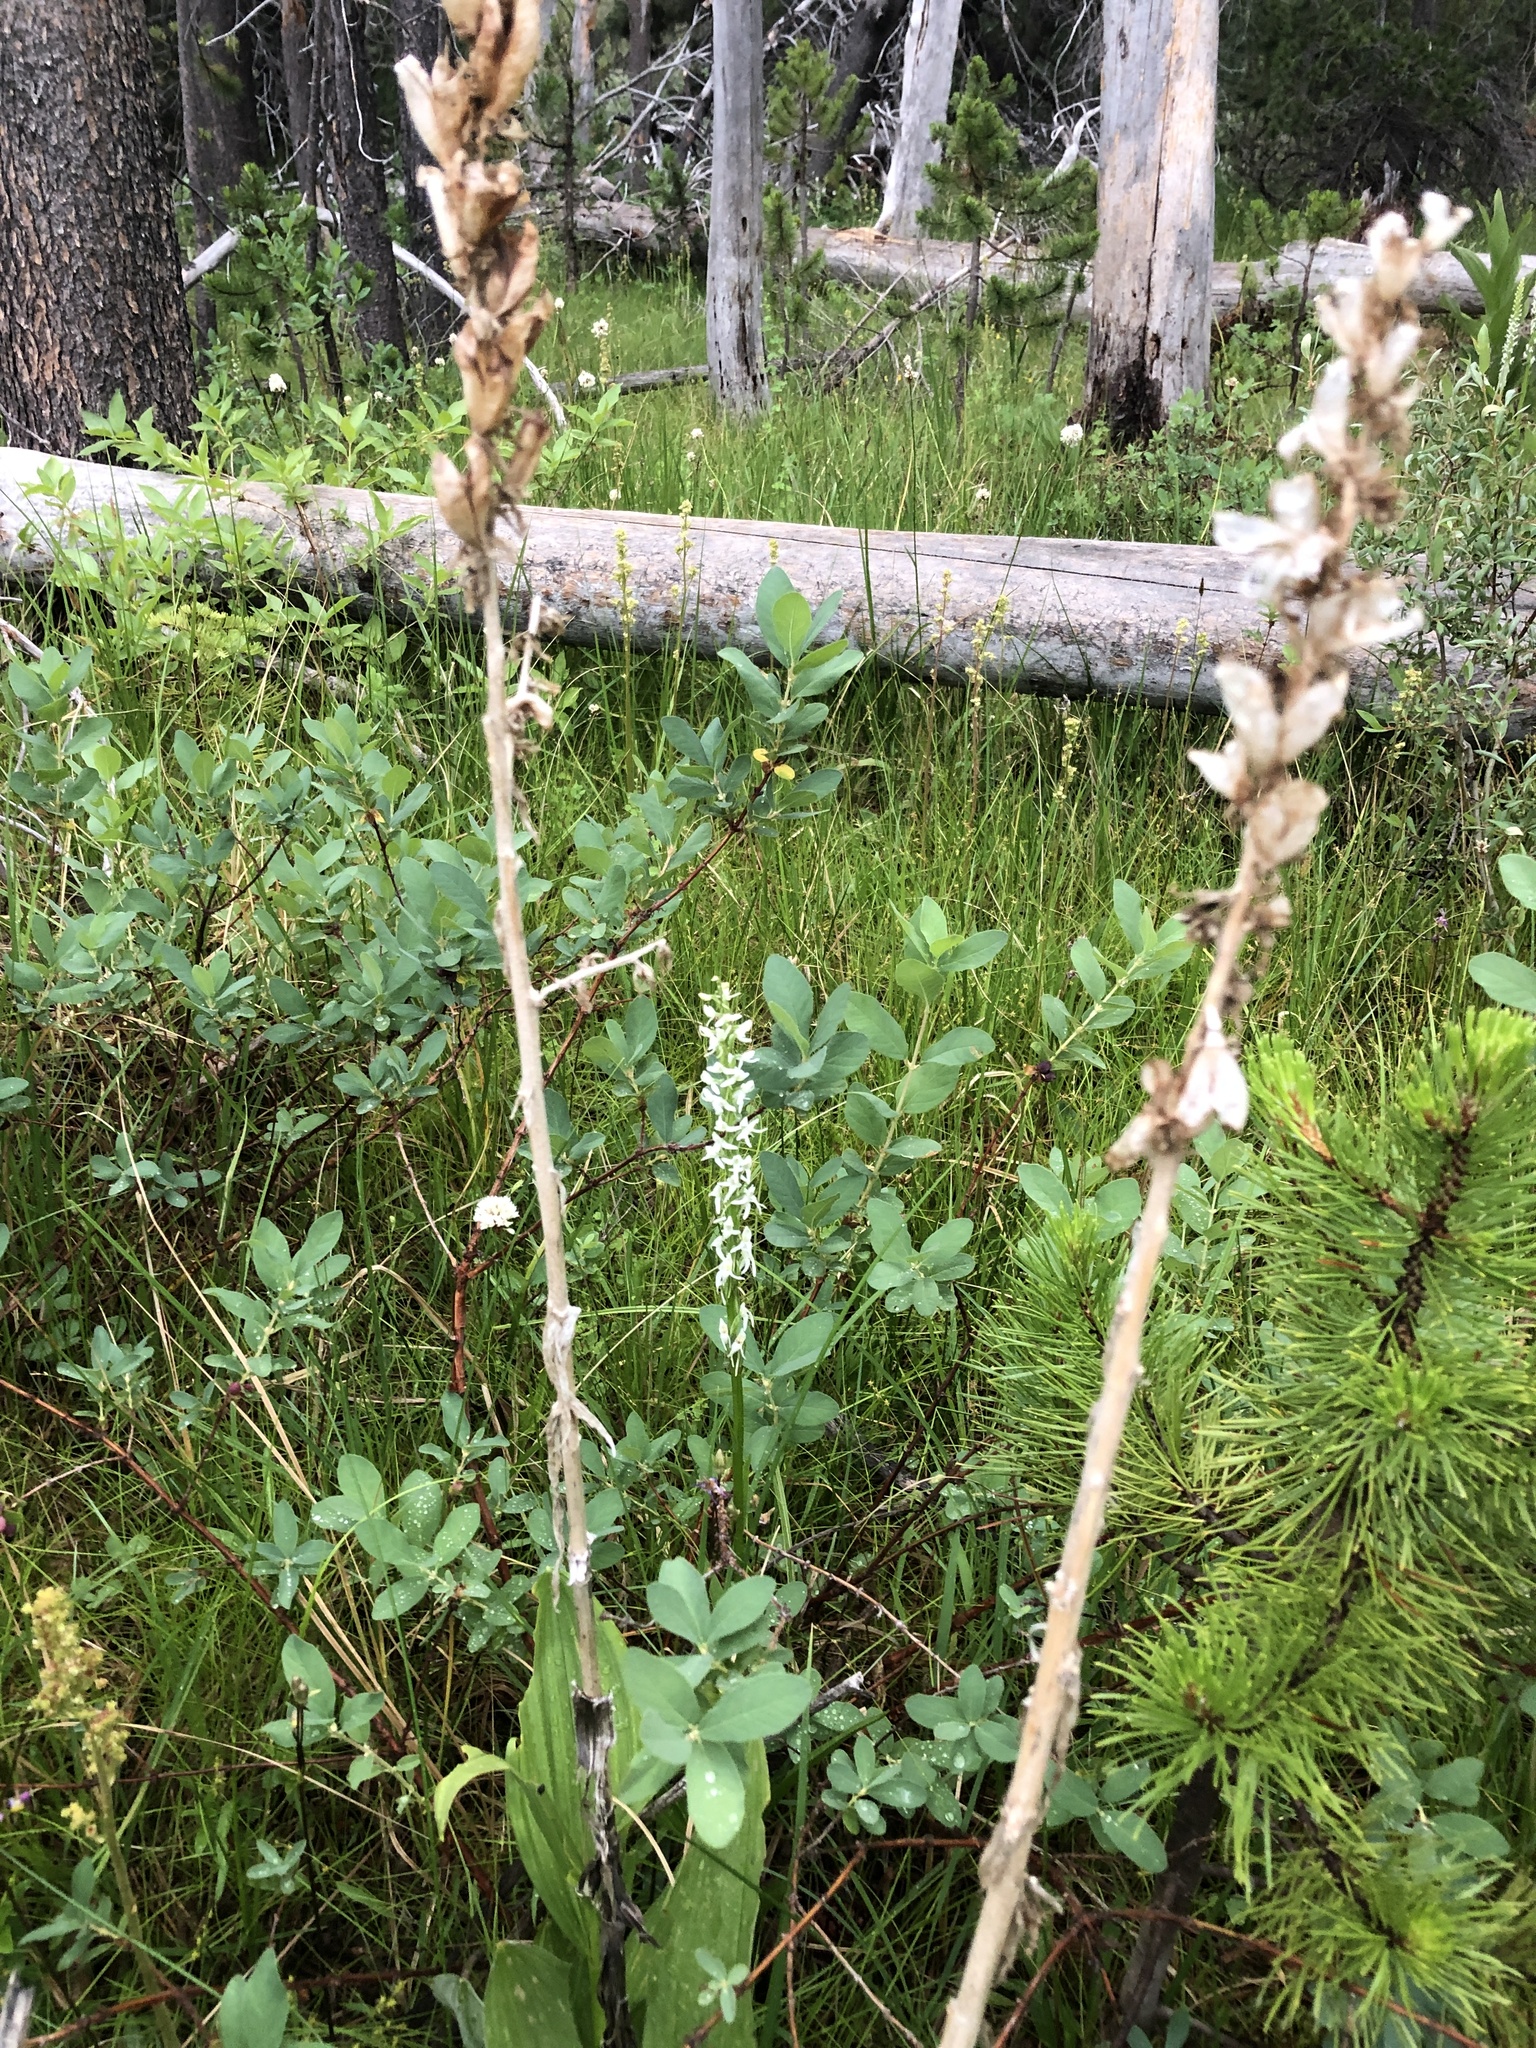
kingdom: Plantae
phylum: Tracheophyta
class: Liliopsida
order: Asparagales
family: Orchidaceae
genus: Platanthera
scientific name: Platanthera dilatata
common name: Bog candles
